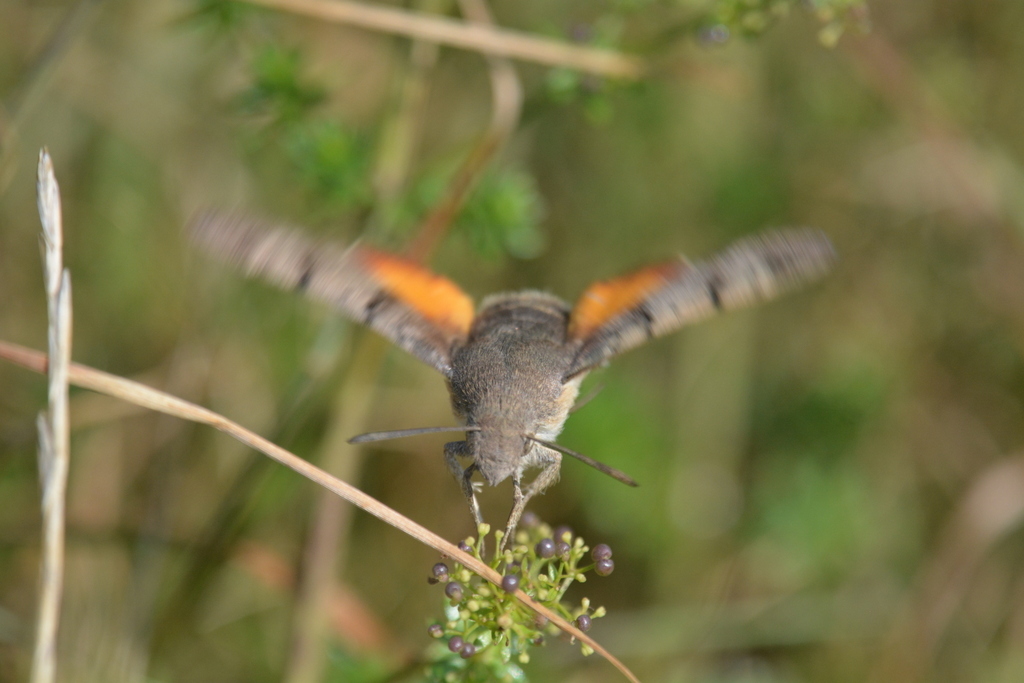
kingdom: Animalia
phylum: Arthropoda
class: Insecta
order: Lepidoptera
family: Sphingidae
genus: Macroglossum
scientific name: Macroglossum stellatarum
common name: Humming-bird hawk-moth
